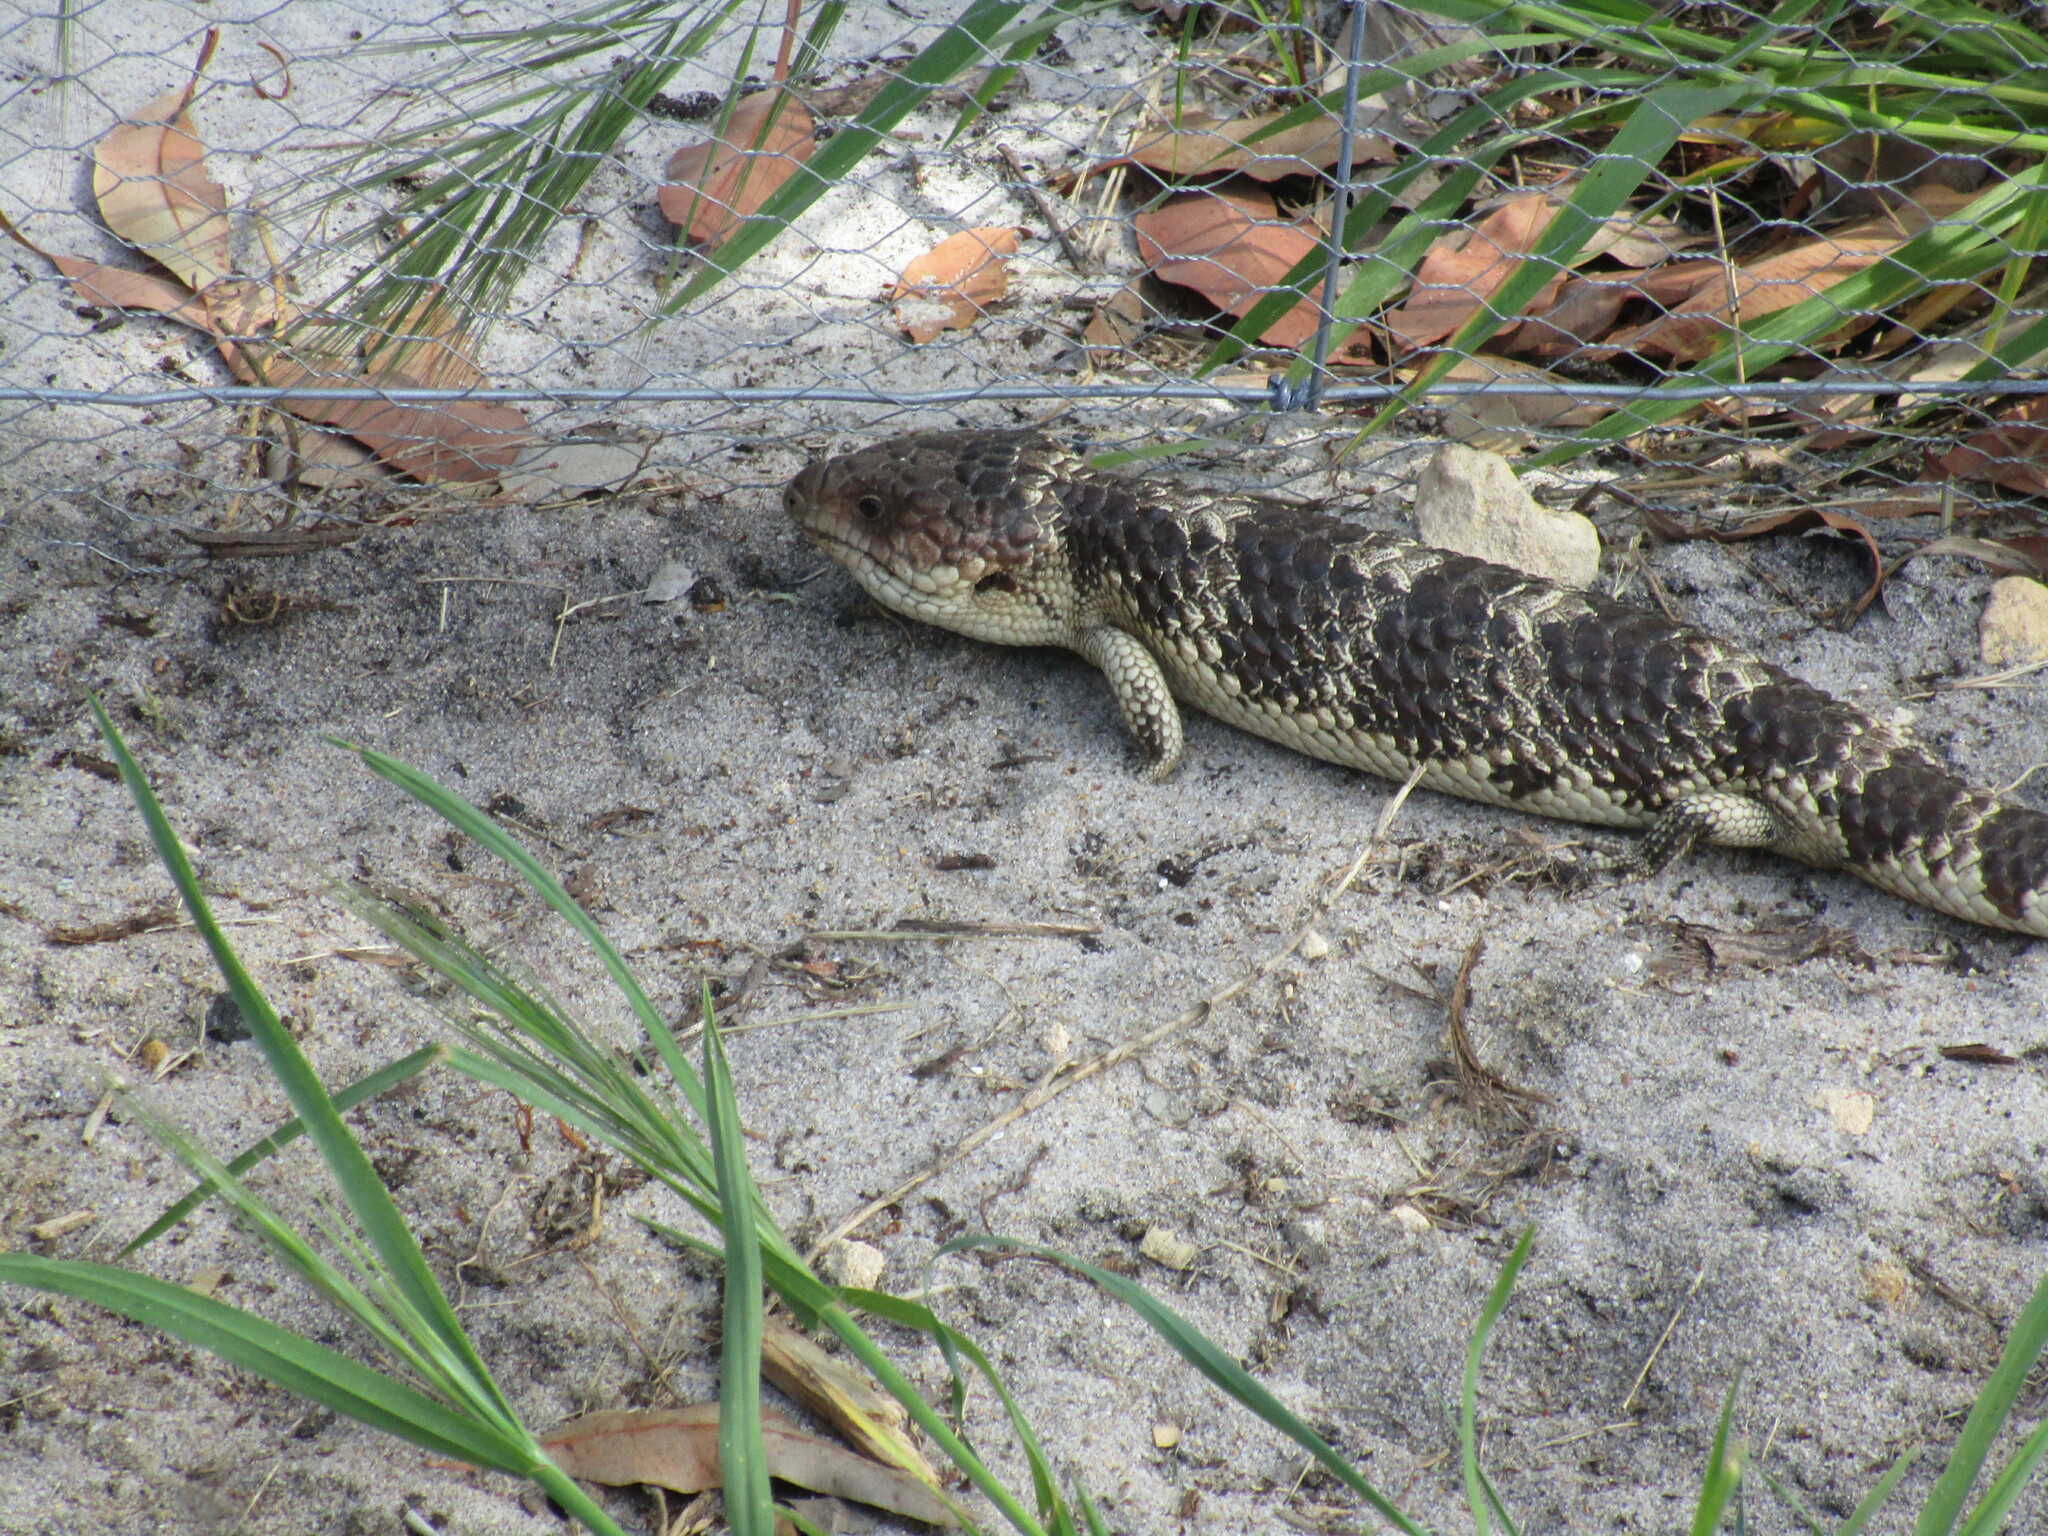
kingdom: Animalia
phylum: Chordata
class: Squamata
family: Scincidae
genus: Tiliqua
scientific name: Tiliqua rugosa
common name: Pinecone lizard
